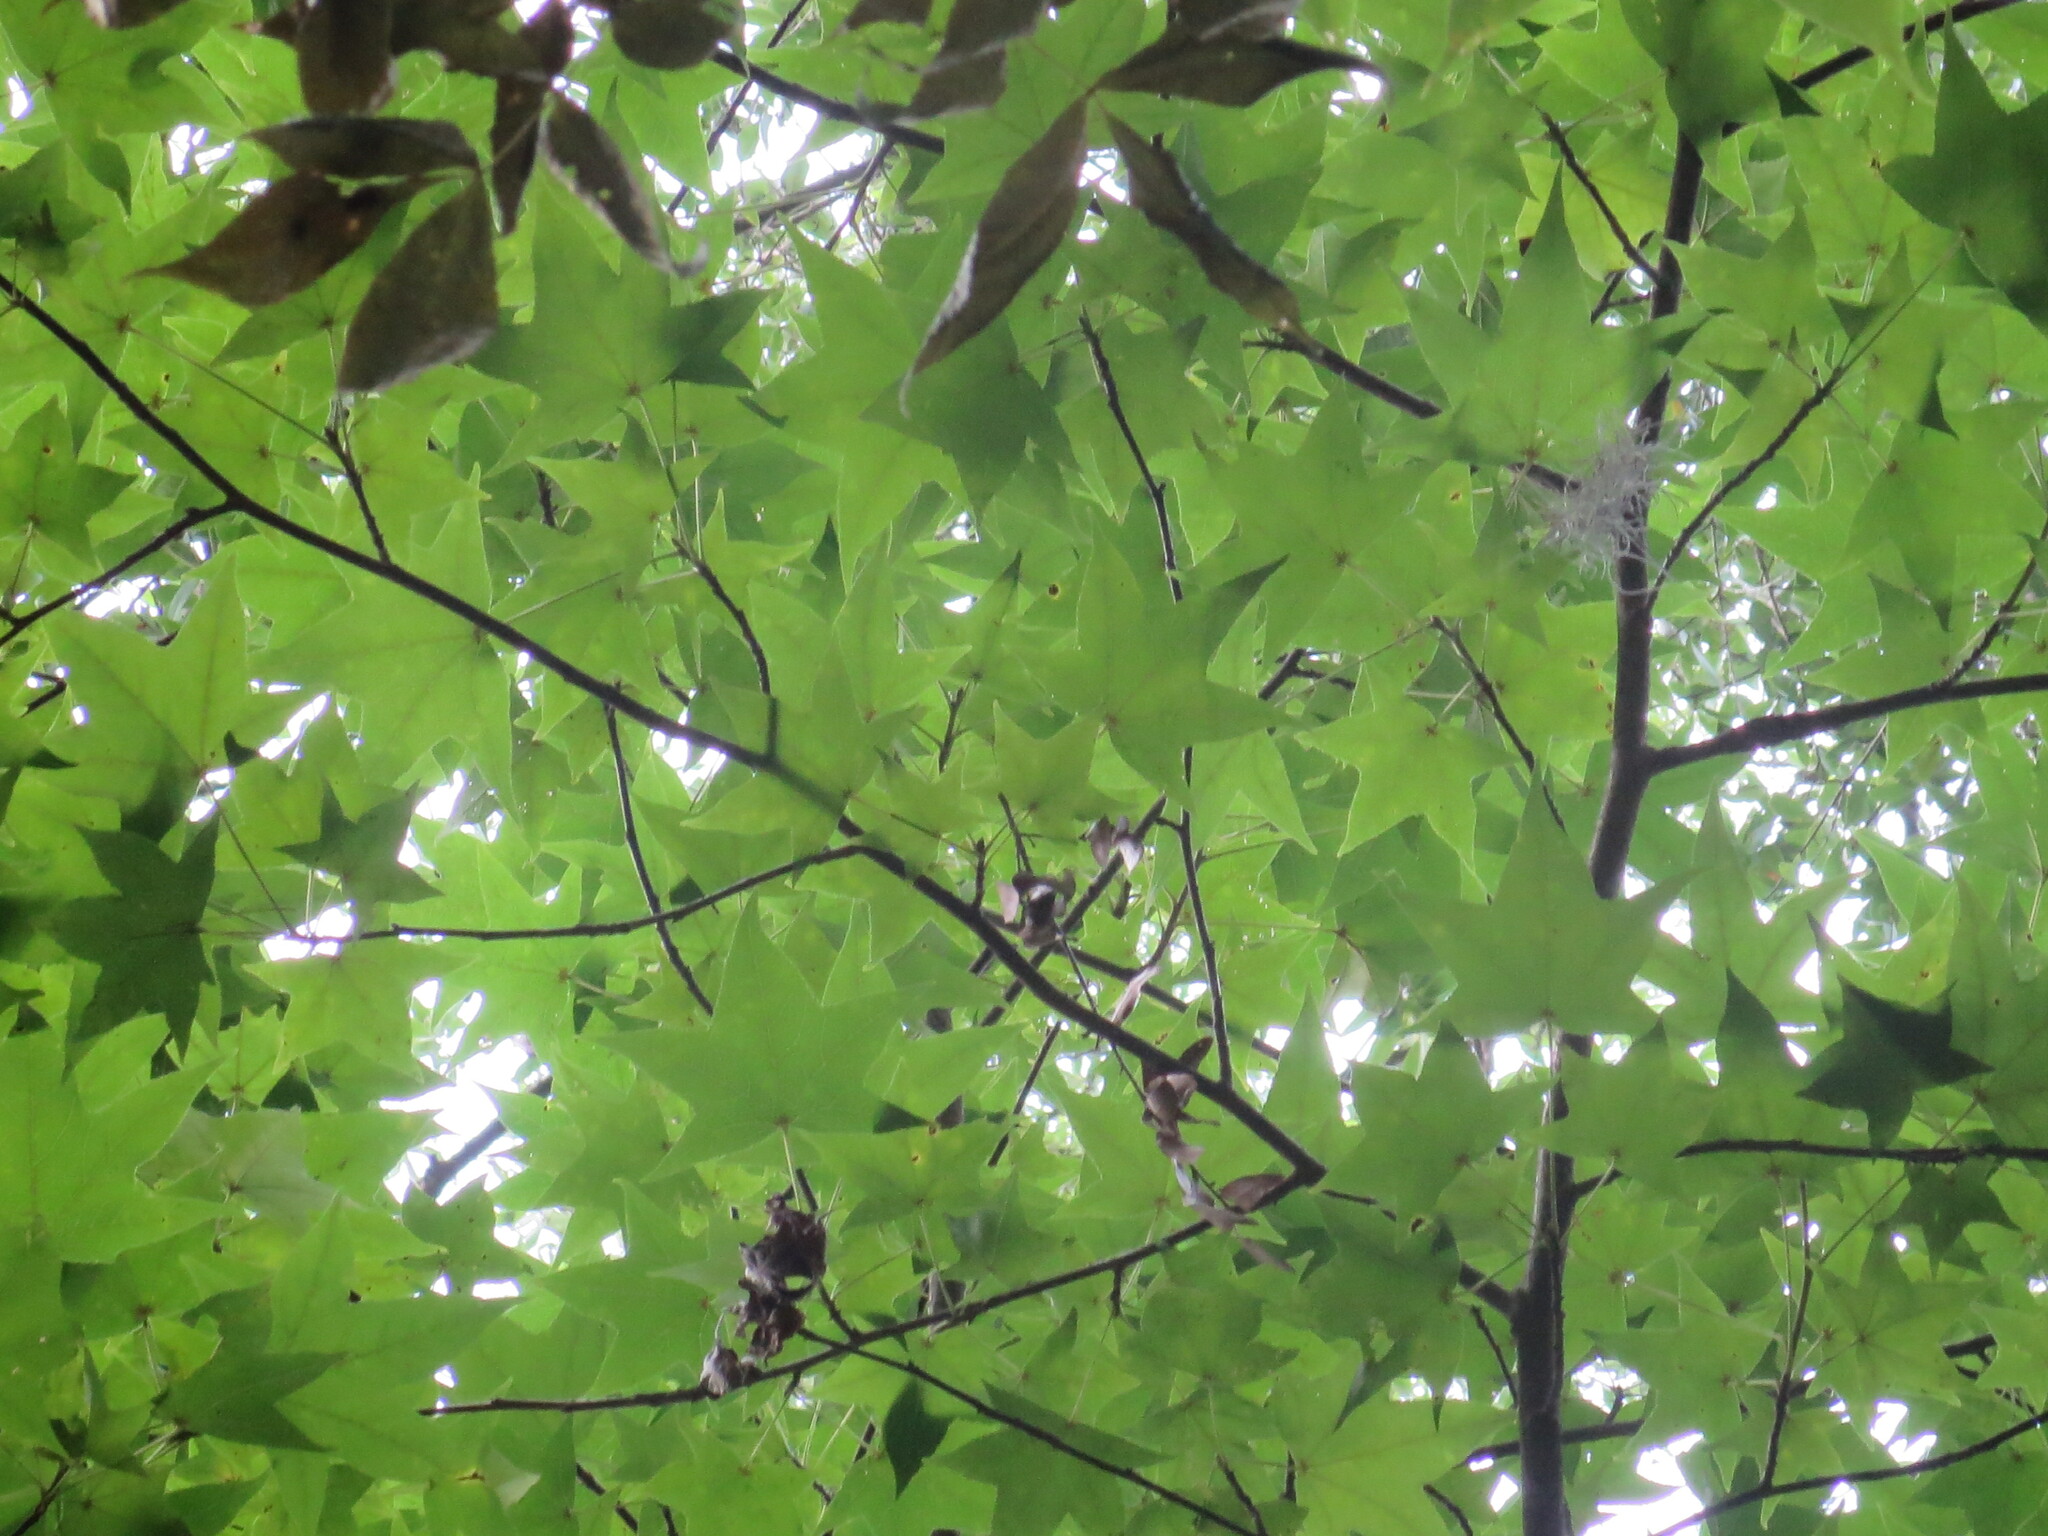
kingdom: Plantae
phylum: Tracheophyta
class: Magnoliopsida
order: Saxifragales
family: Altingiaceae
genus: Liquidambar
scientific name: Liquidambar styraciflua
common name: Sweet gum
